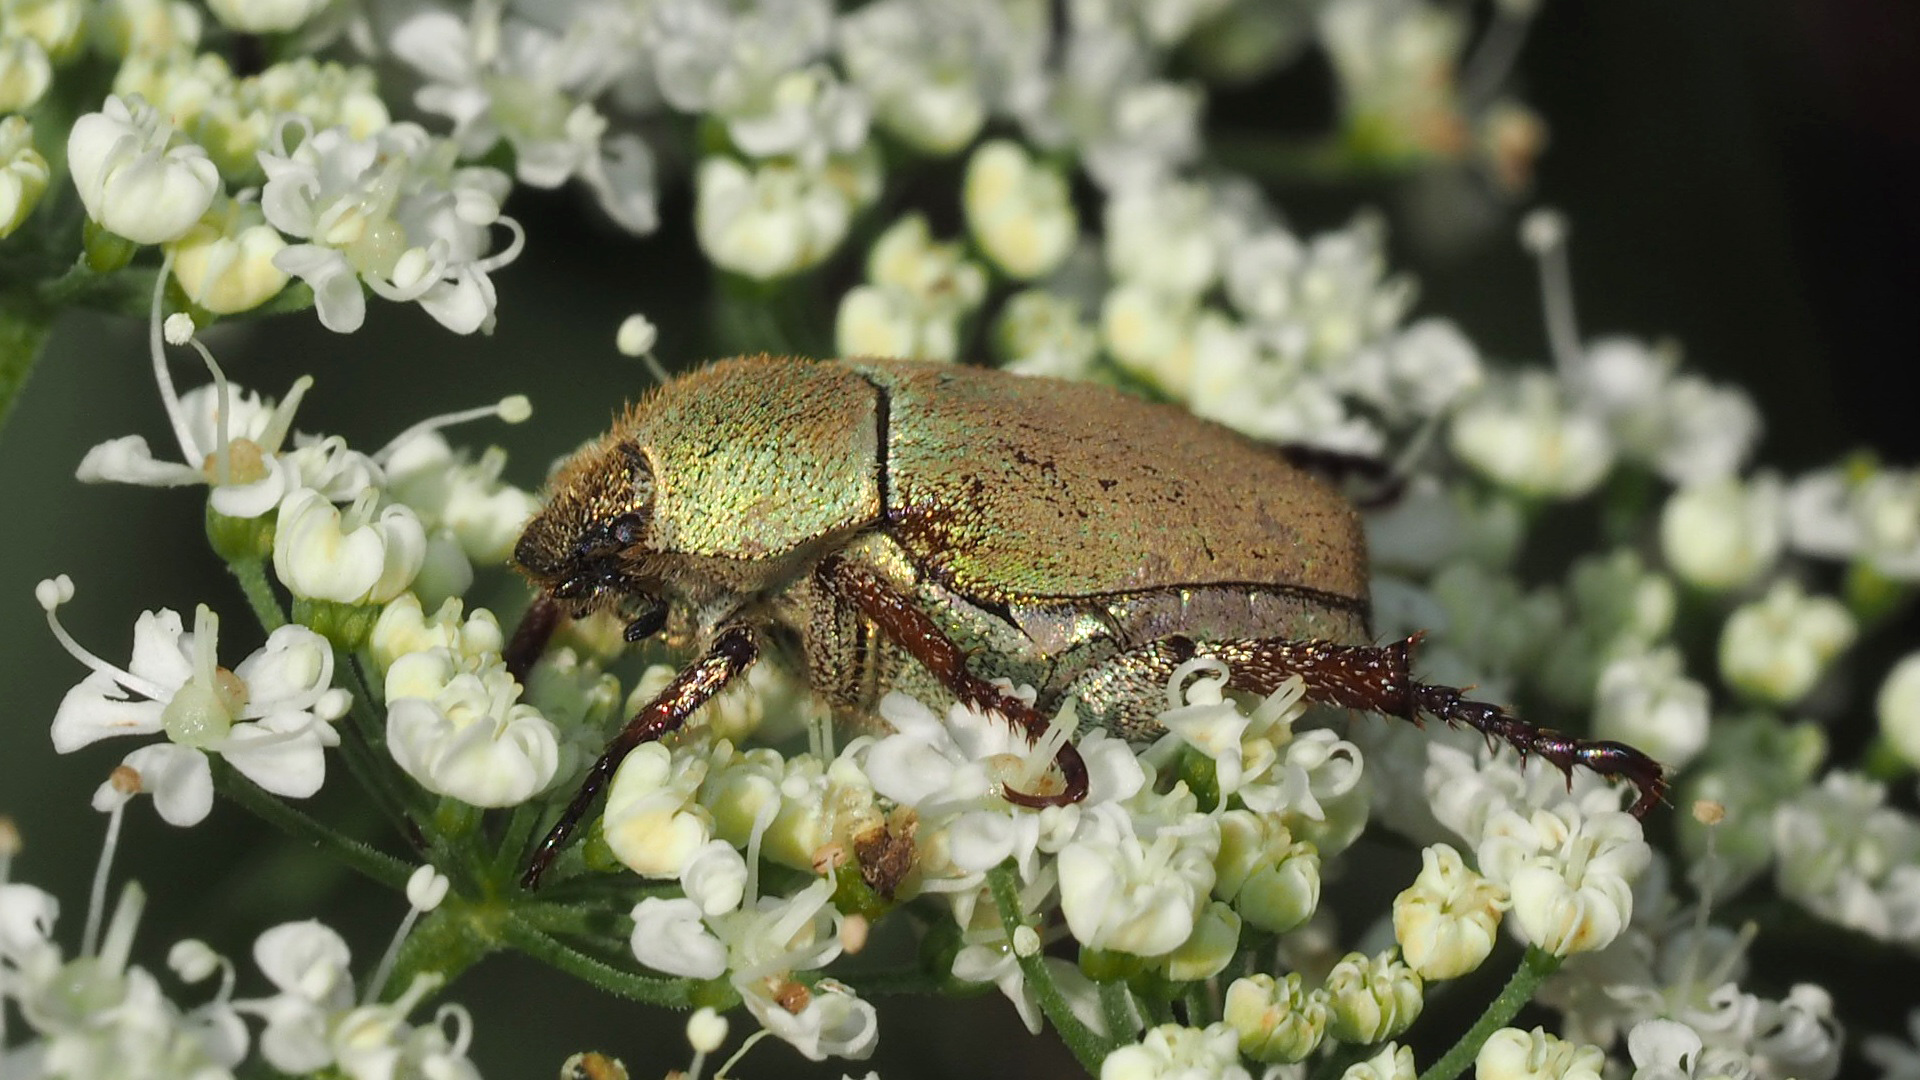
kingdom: Animalia
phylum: Arthropoda
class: Insecta
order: Coleoptera
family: Scarabaeidae
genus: Hoplia
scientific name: Hoplia argentea
